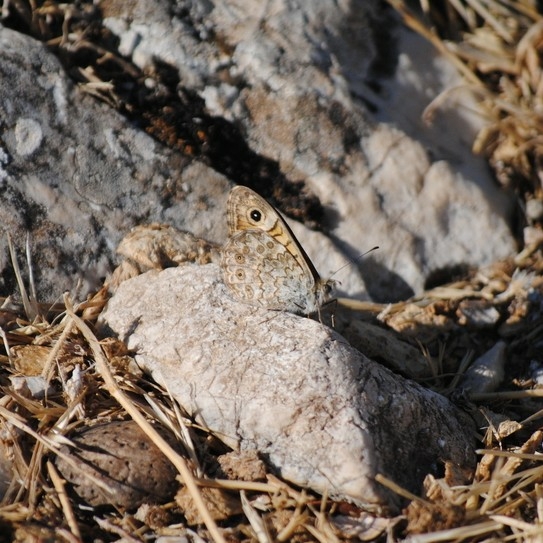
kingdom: Animalia
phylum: Arthropoda
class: Insecta
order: Lepidoptera
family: Nymphalidae
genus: Pararge
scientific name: Pararge Lasiommata megera
